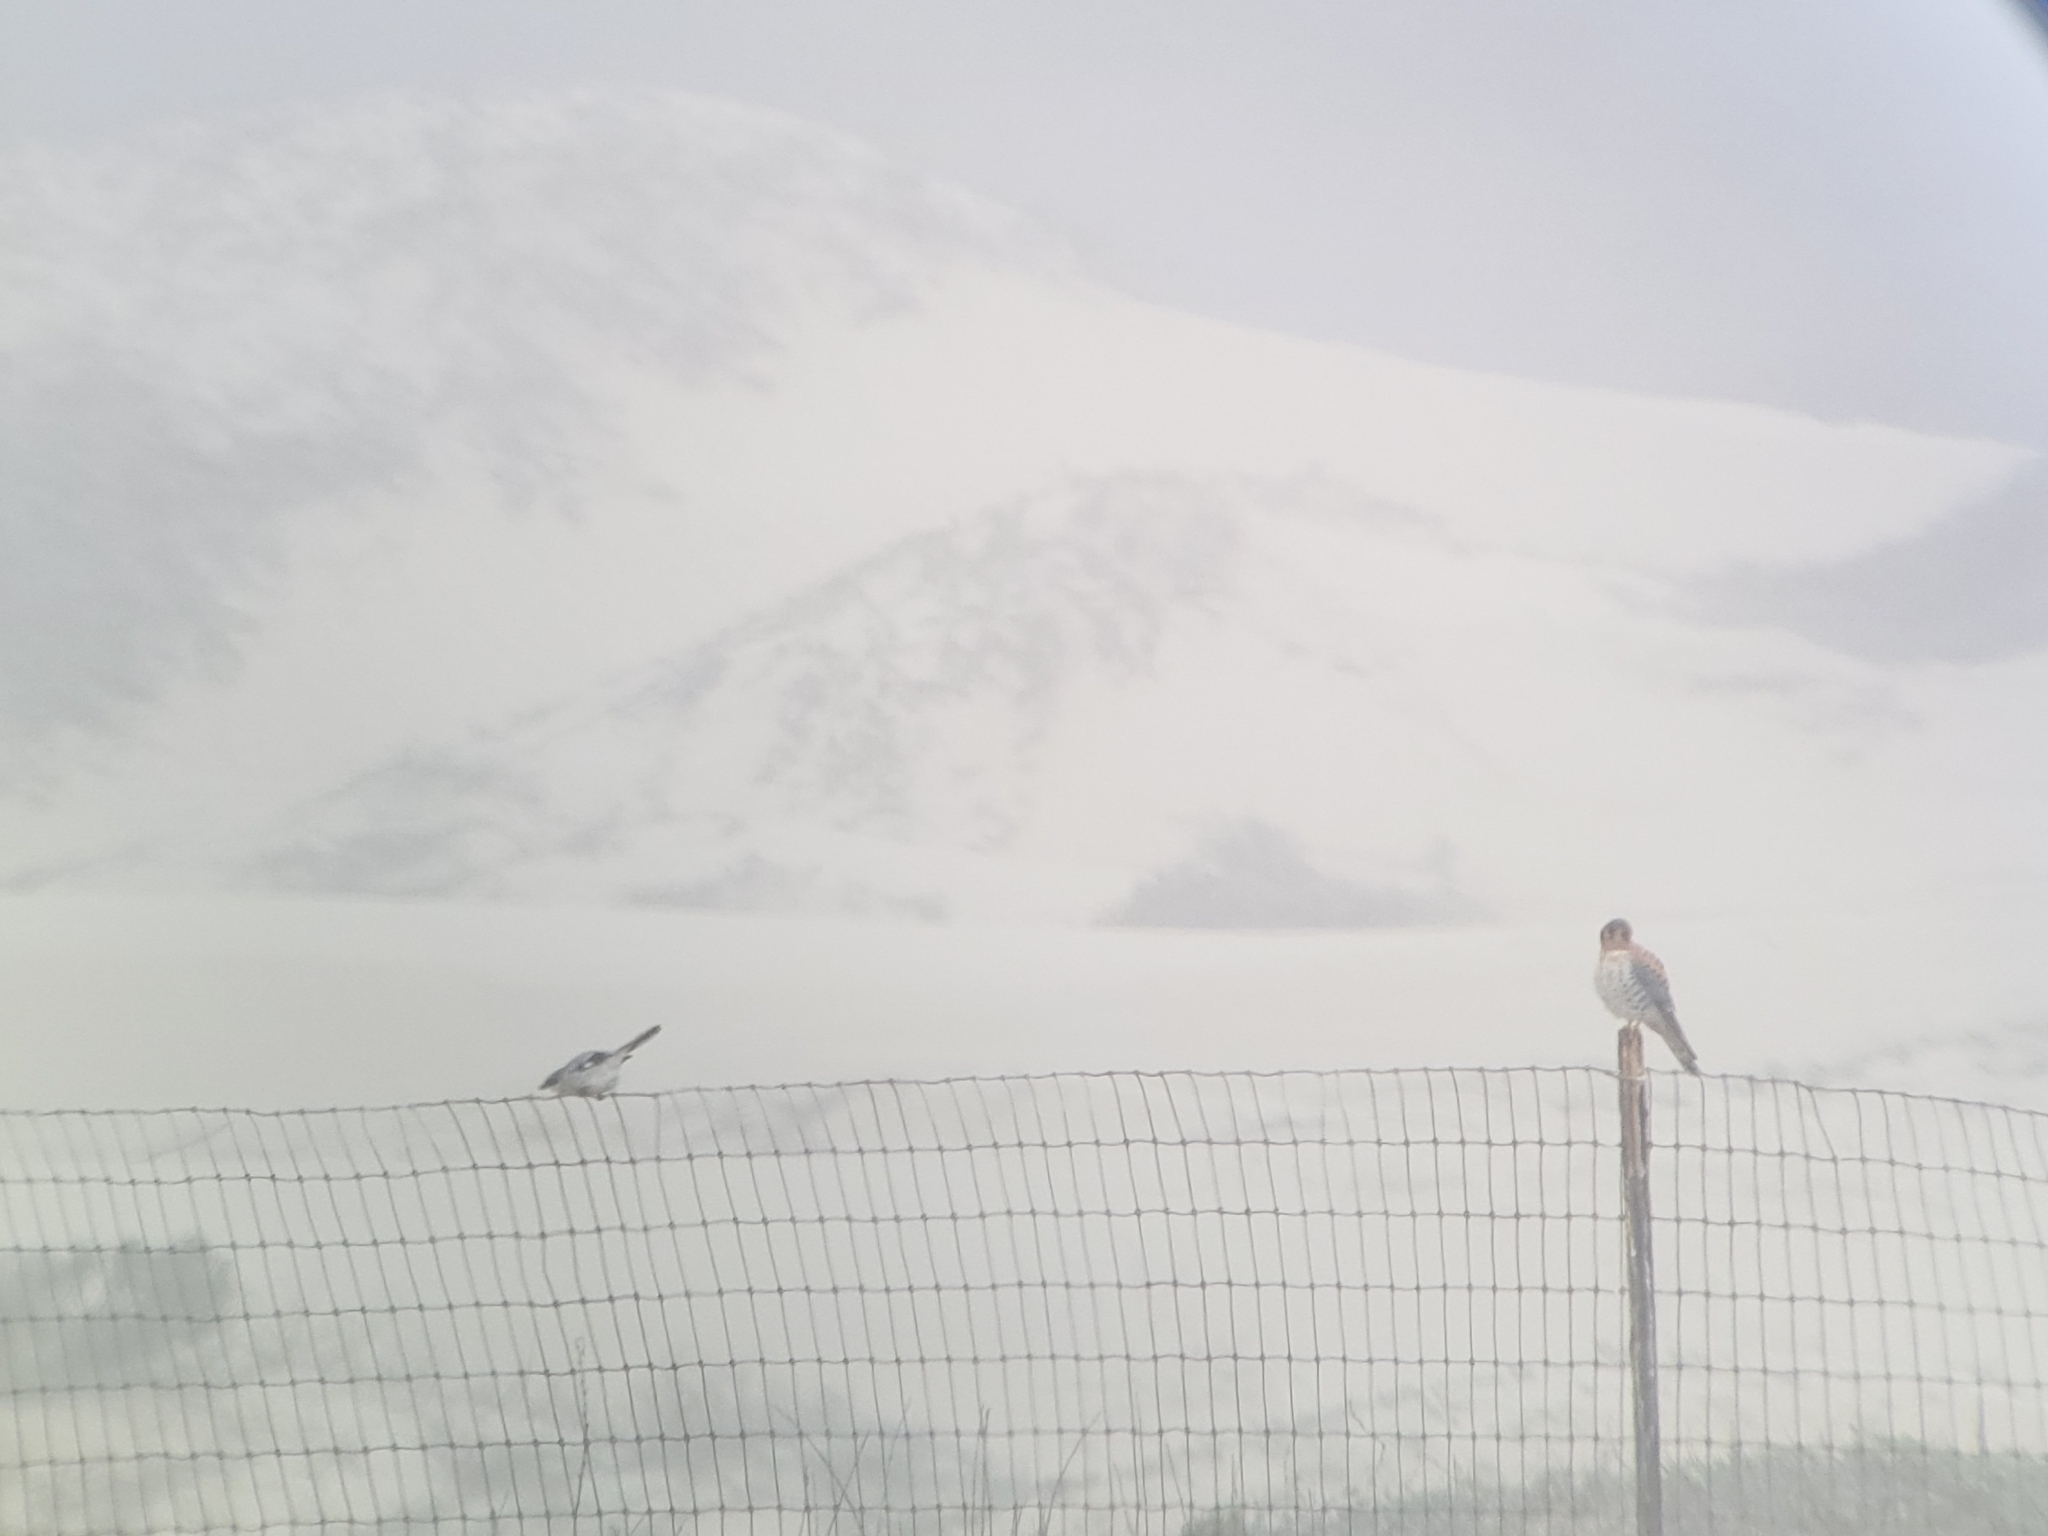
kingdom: Animalia
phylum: Chordata
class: Aves
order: Passeriformes
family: Laniidae
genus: Lanius
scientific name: Lanius ludovicianus
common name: Loggerhead shrike
